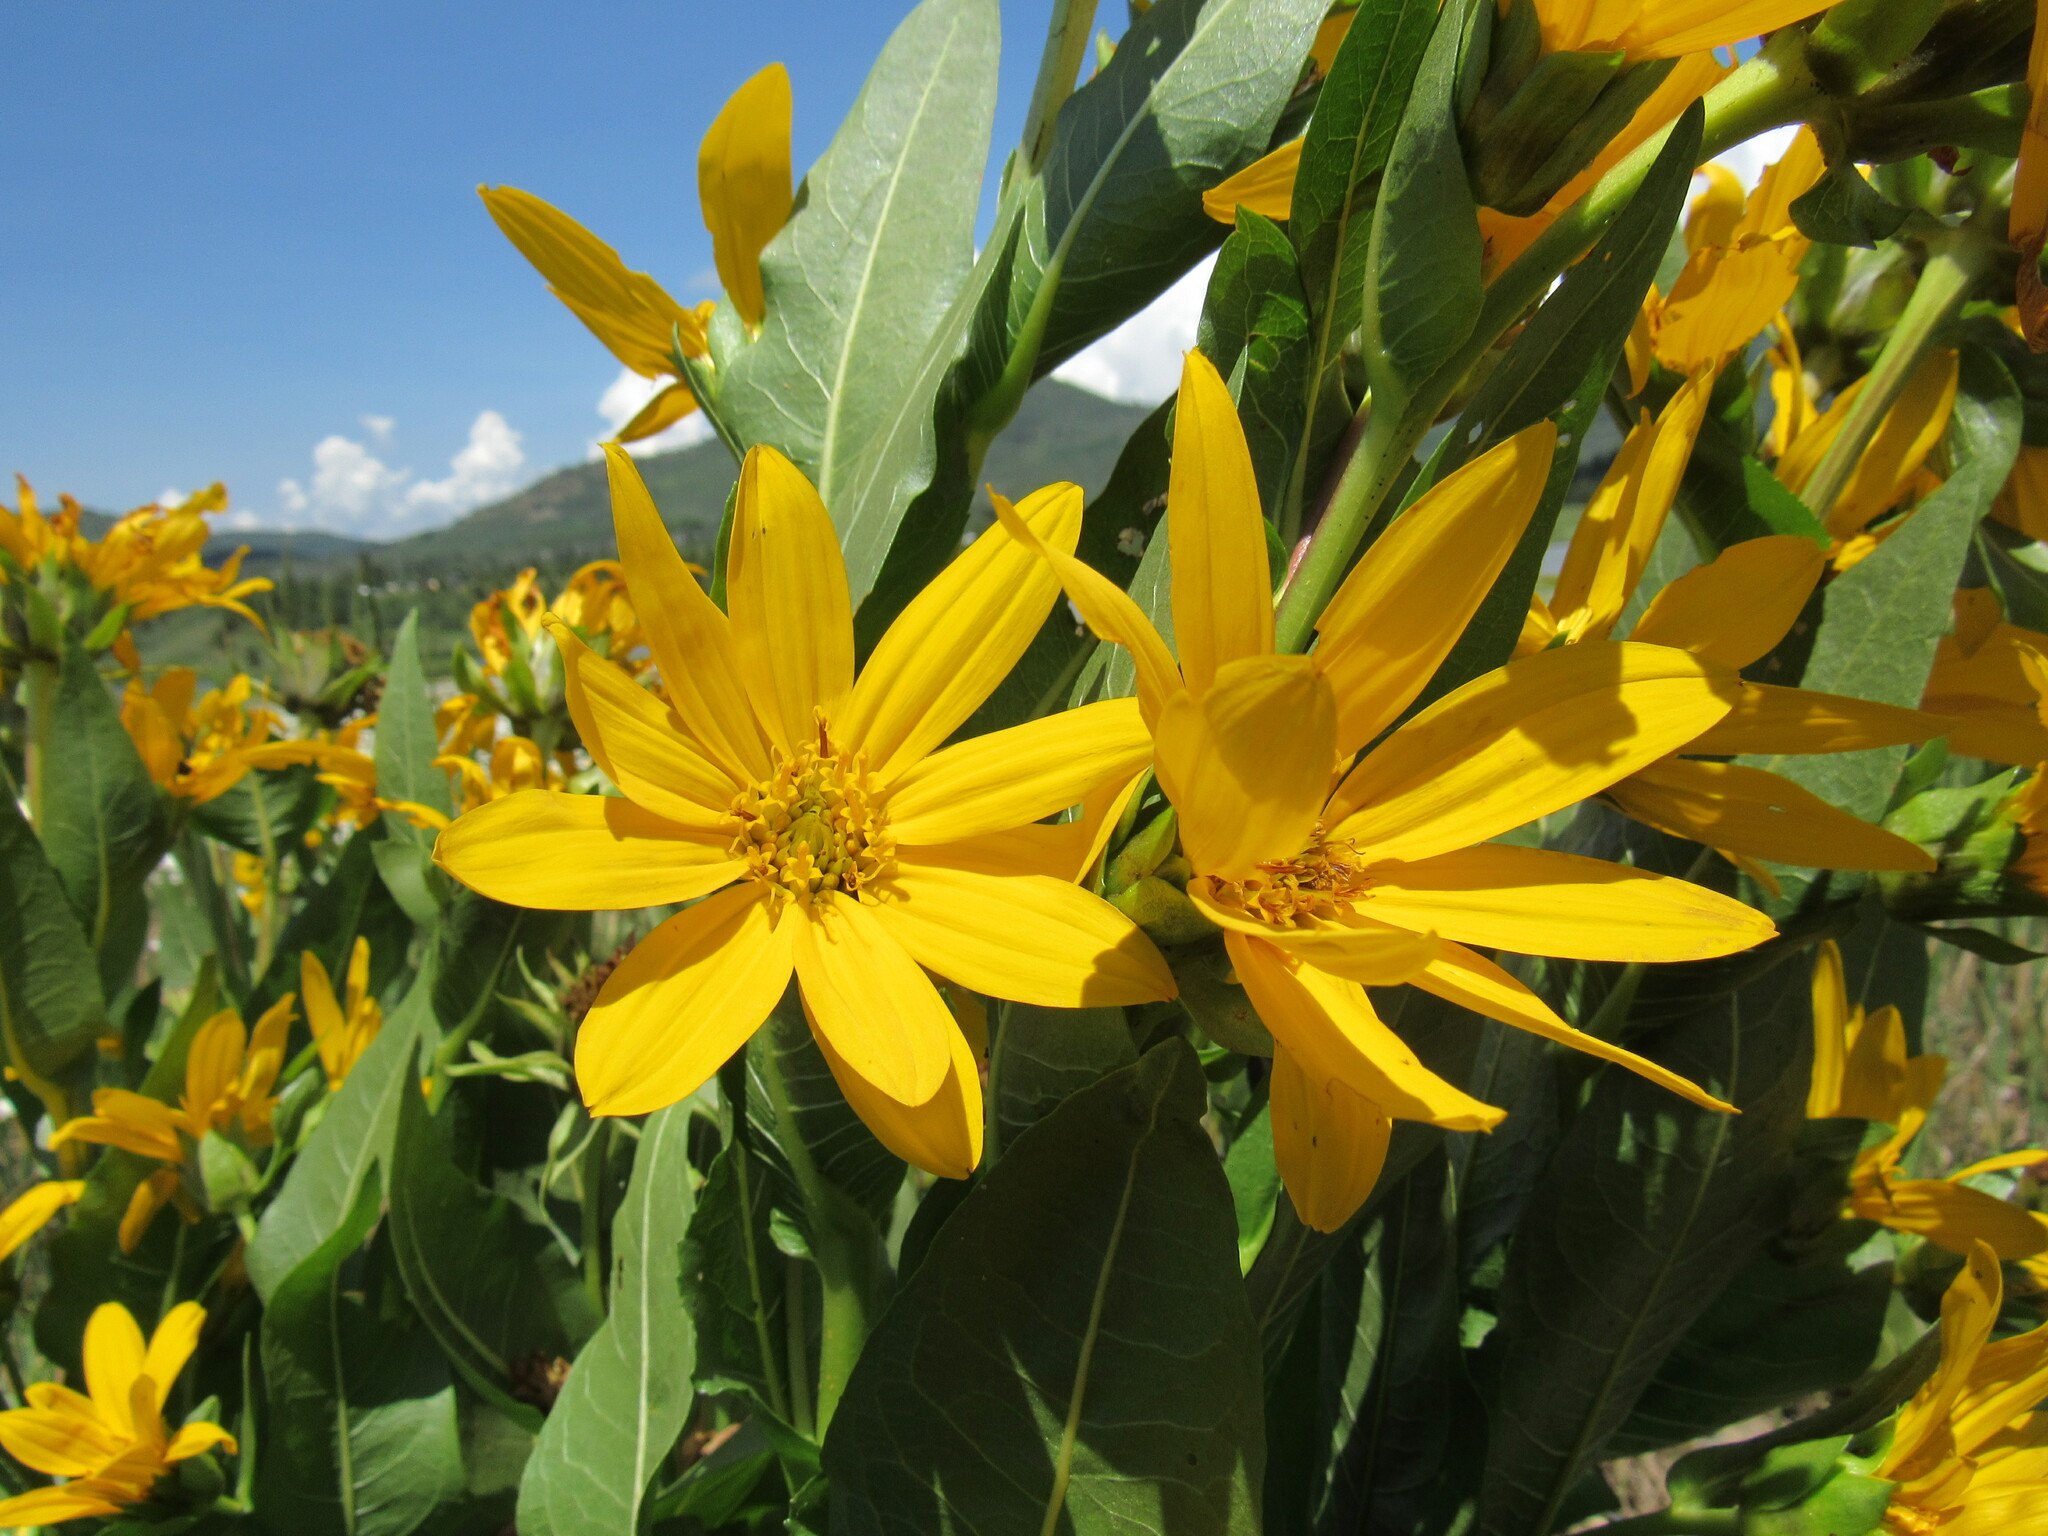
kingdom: Plantae
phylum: Tracheophyta
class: Magnoliopsida
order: Asterales
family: Asteraceae
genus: Wyethia
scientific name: Wyethia amplexicaulis
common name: Northern mule's-ears
